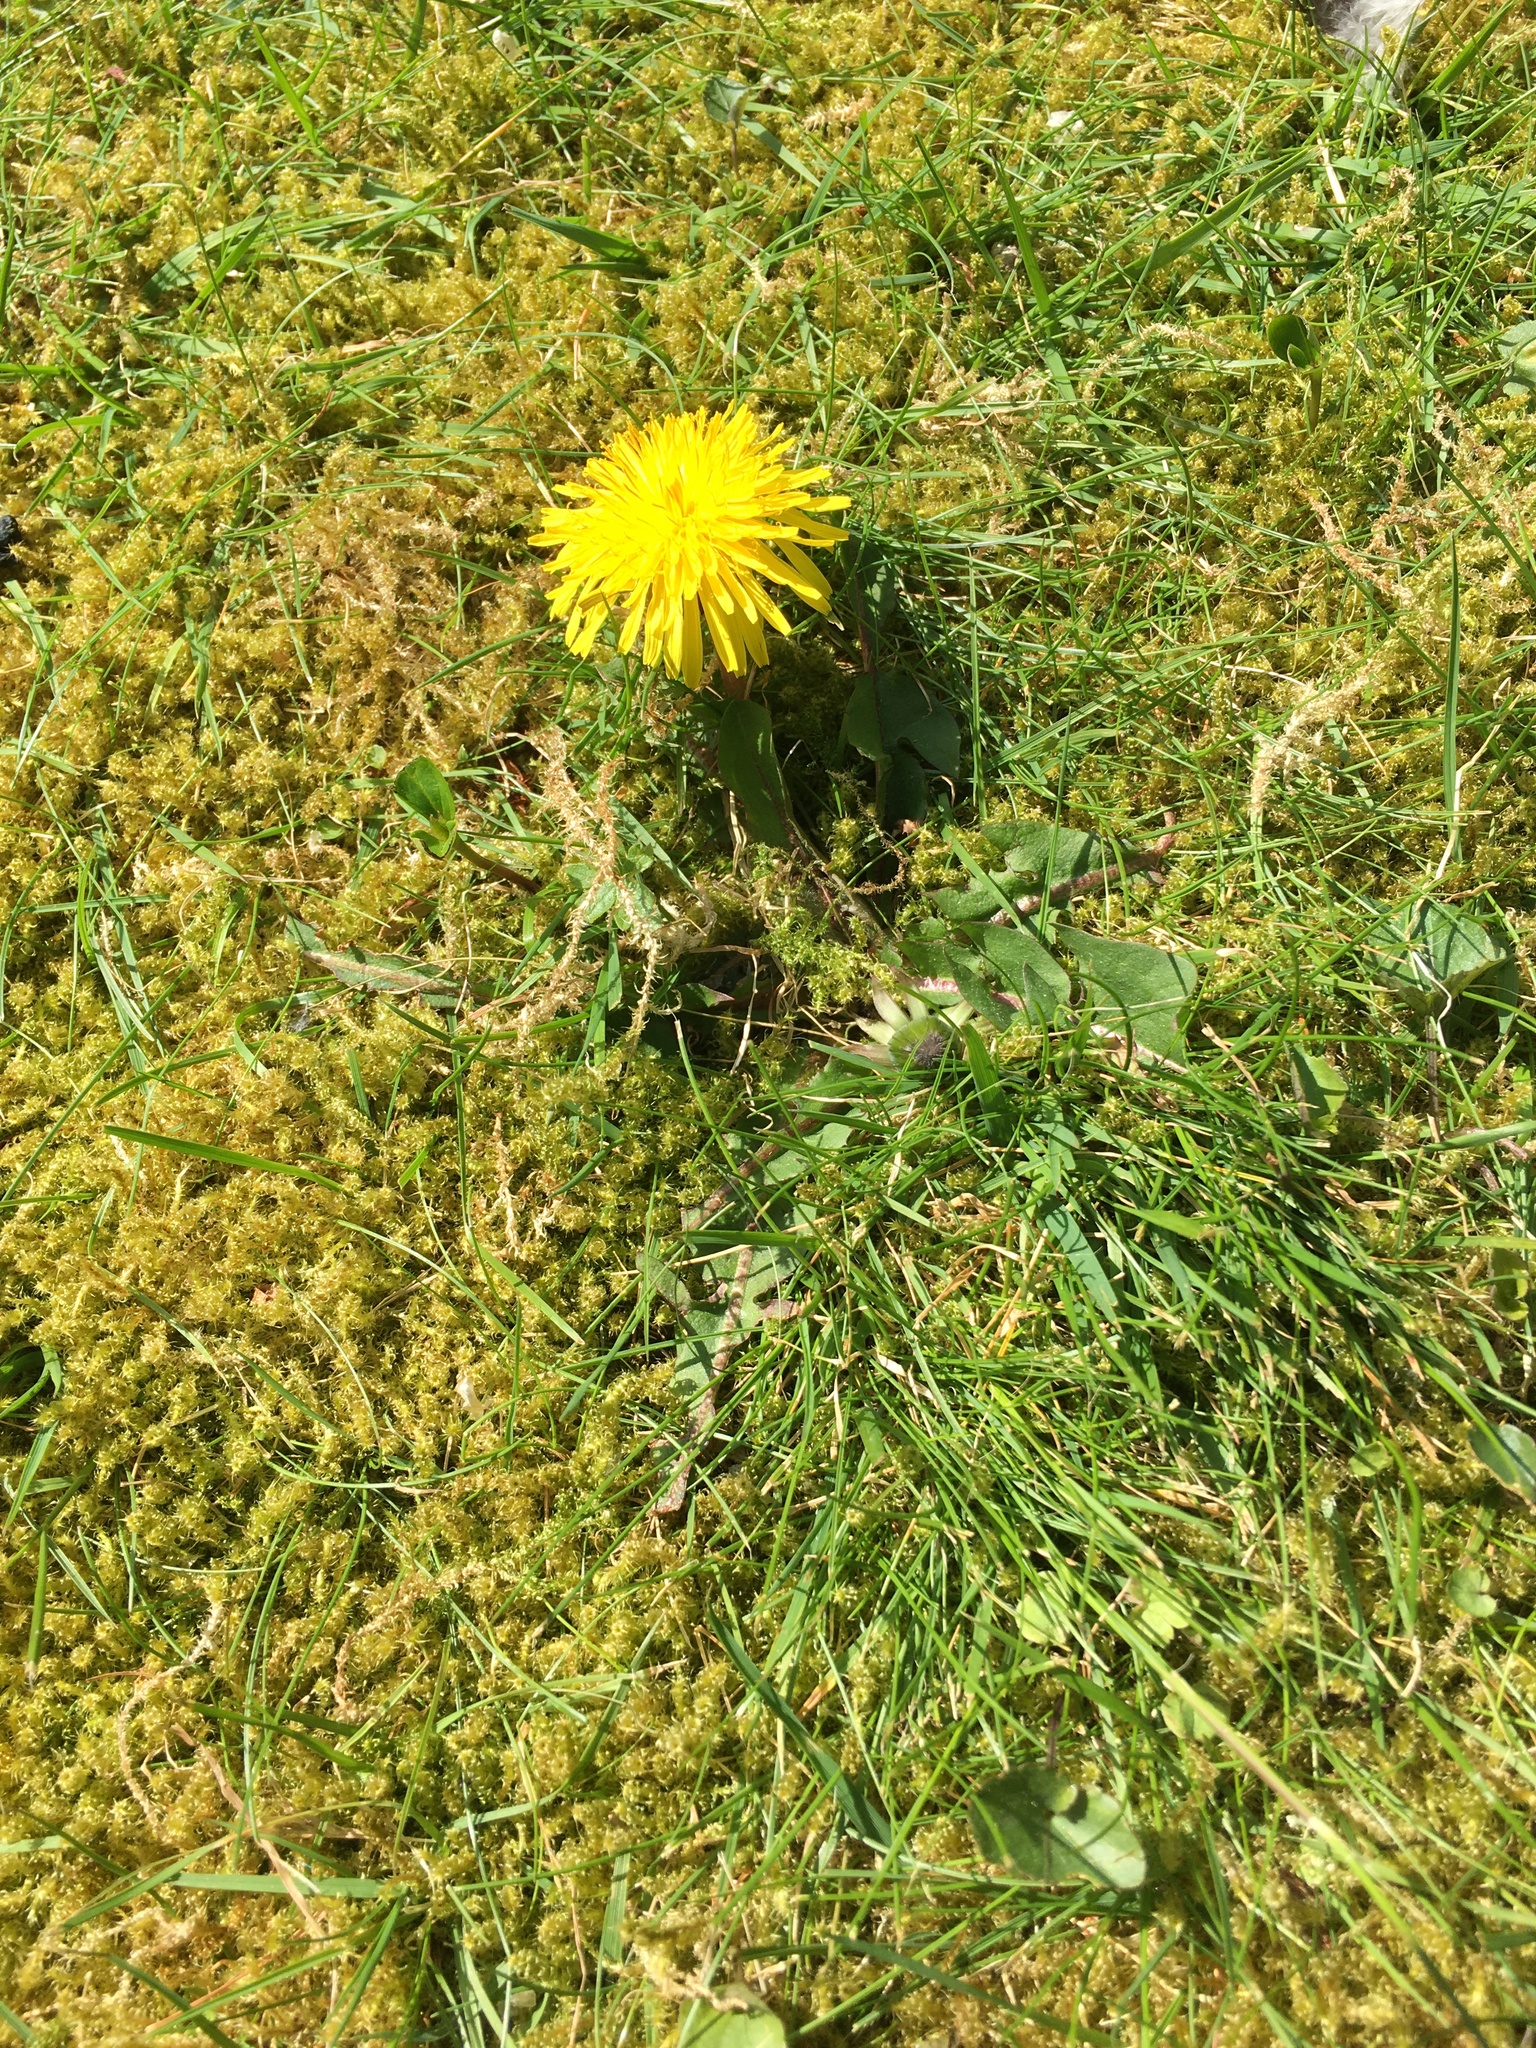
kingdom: Plantae
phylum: Tracheophyta
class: Magnoliopsida
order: Asterales
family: Asteraceae
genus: Taraxacum
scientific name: Taraxacum officinale
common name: Common dandelion
